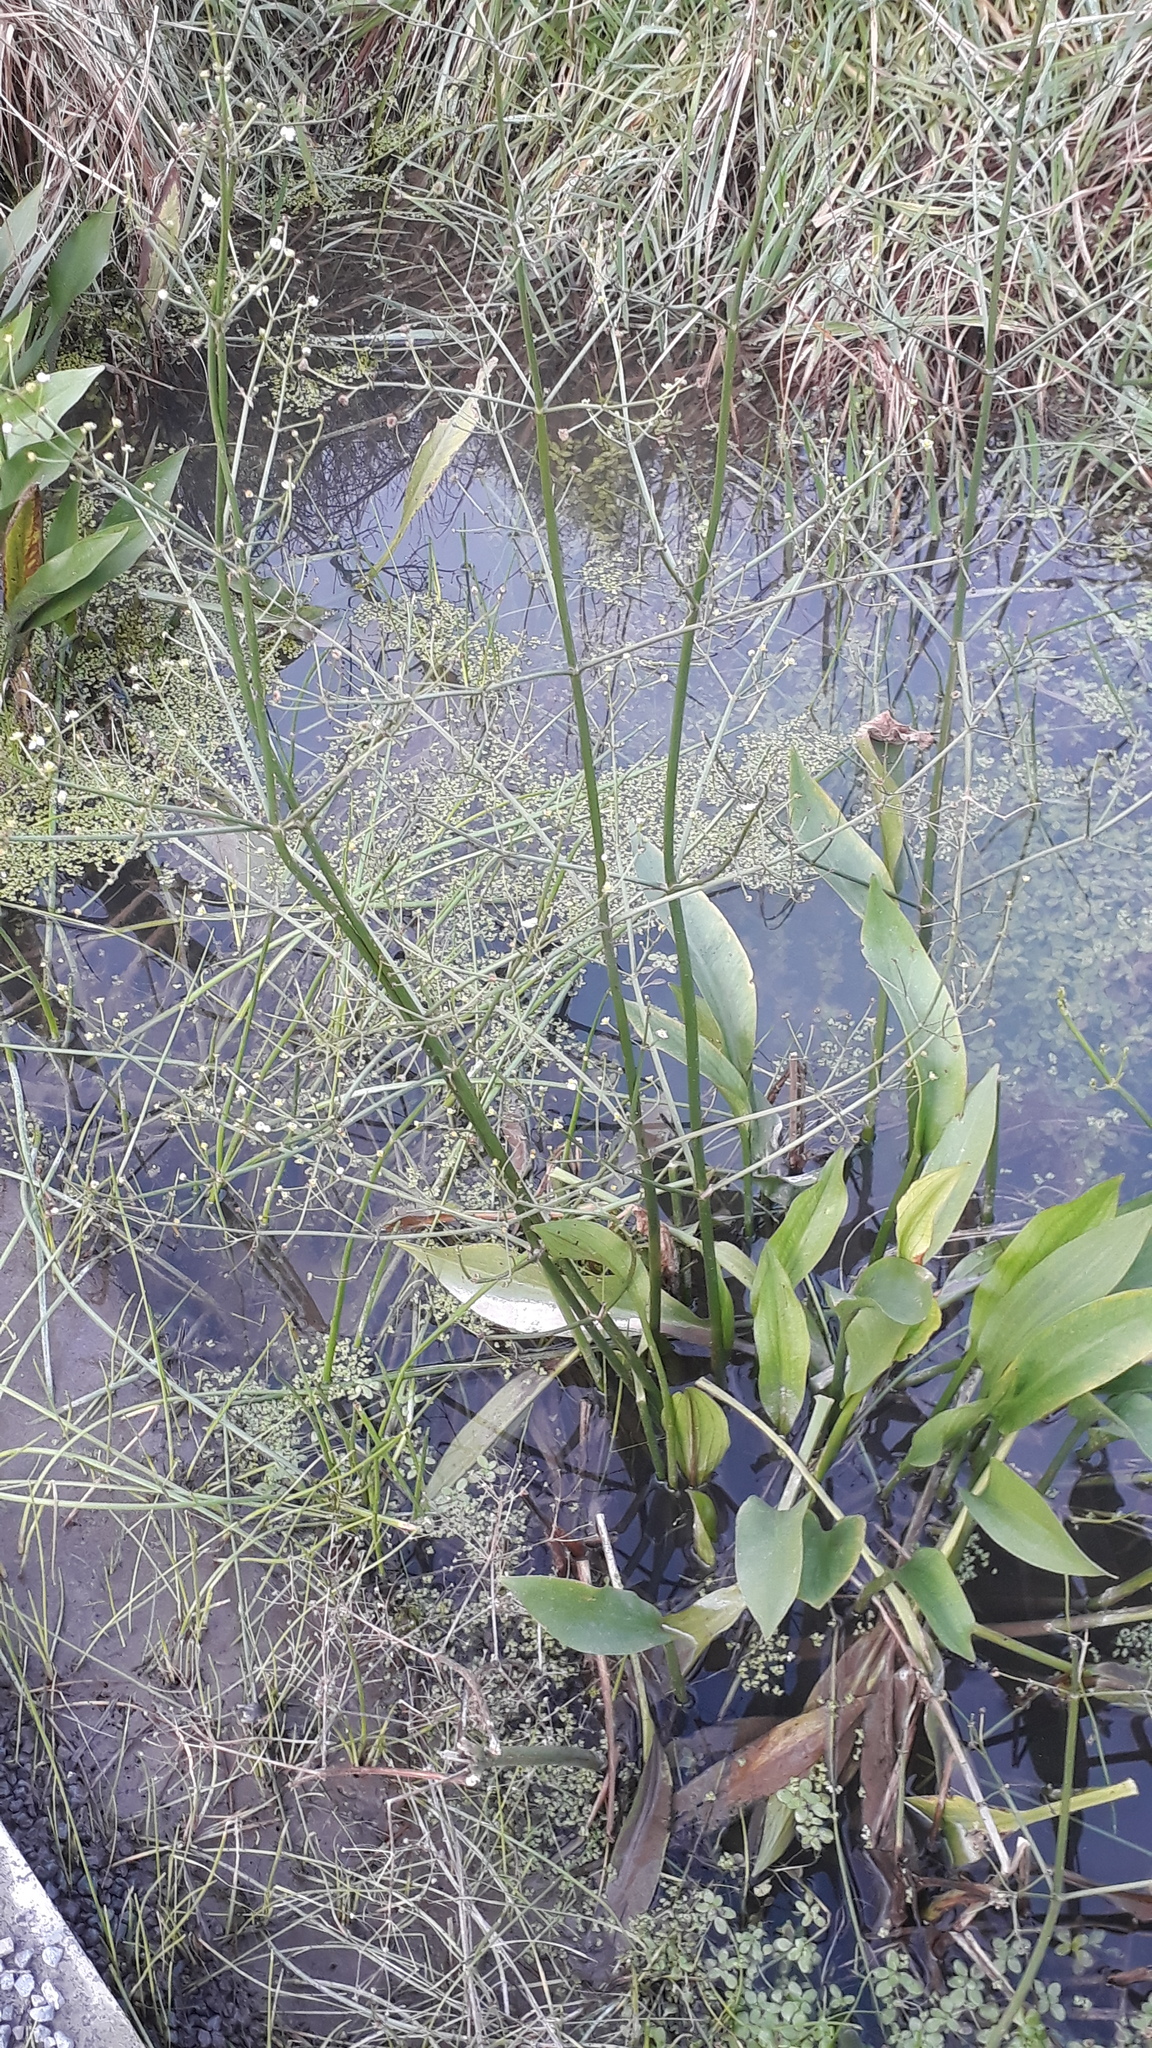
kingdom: Plantae
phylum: Tracheophyta
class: Liliopsida
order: Alismatales
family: Alismataceae
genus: Alisma
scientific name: Alisma plantago-aquatica
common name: Water-plantain
